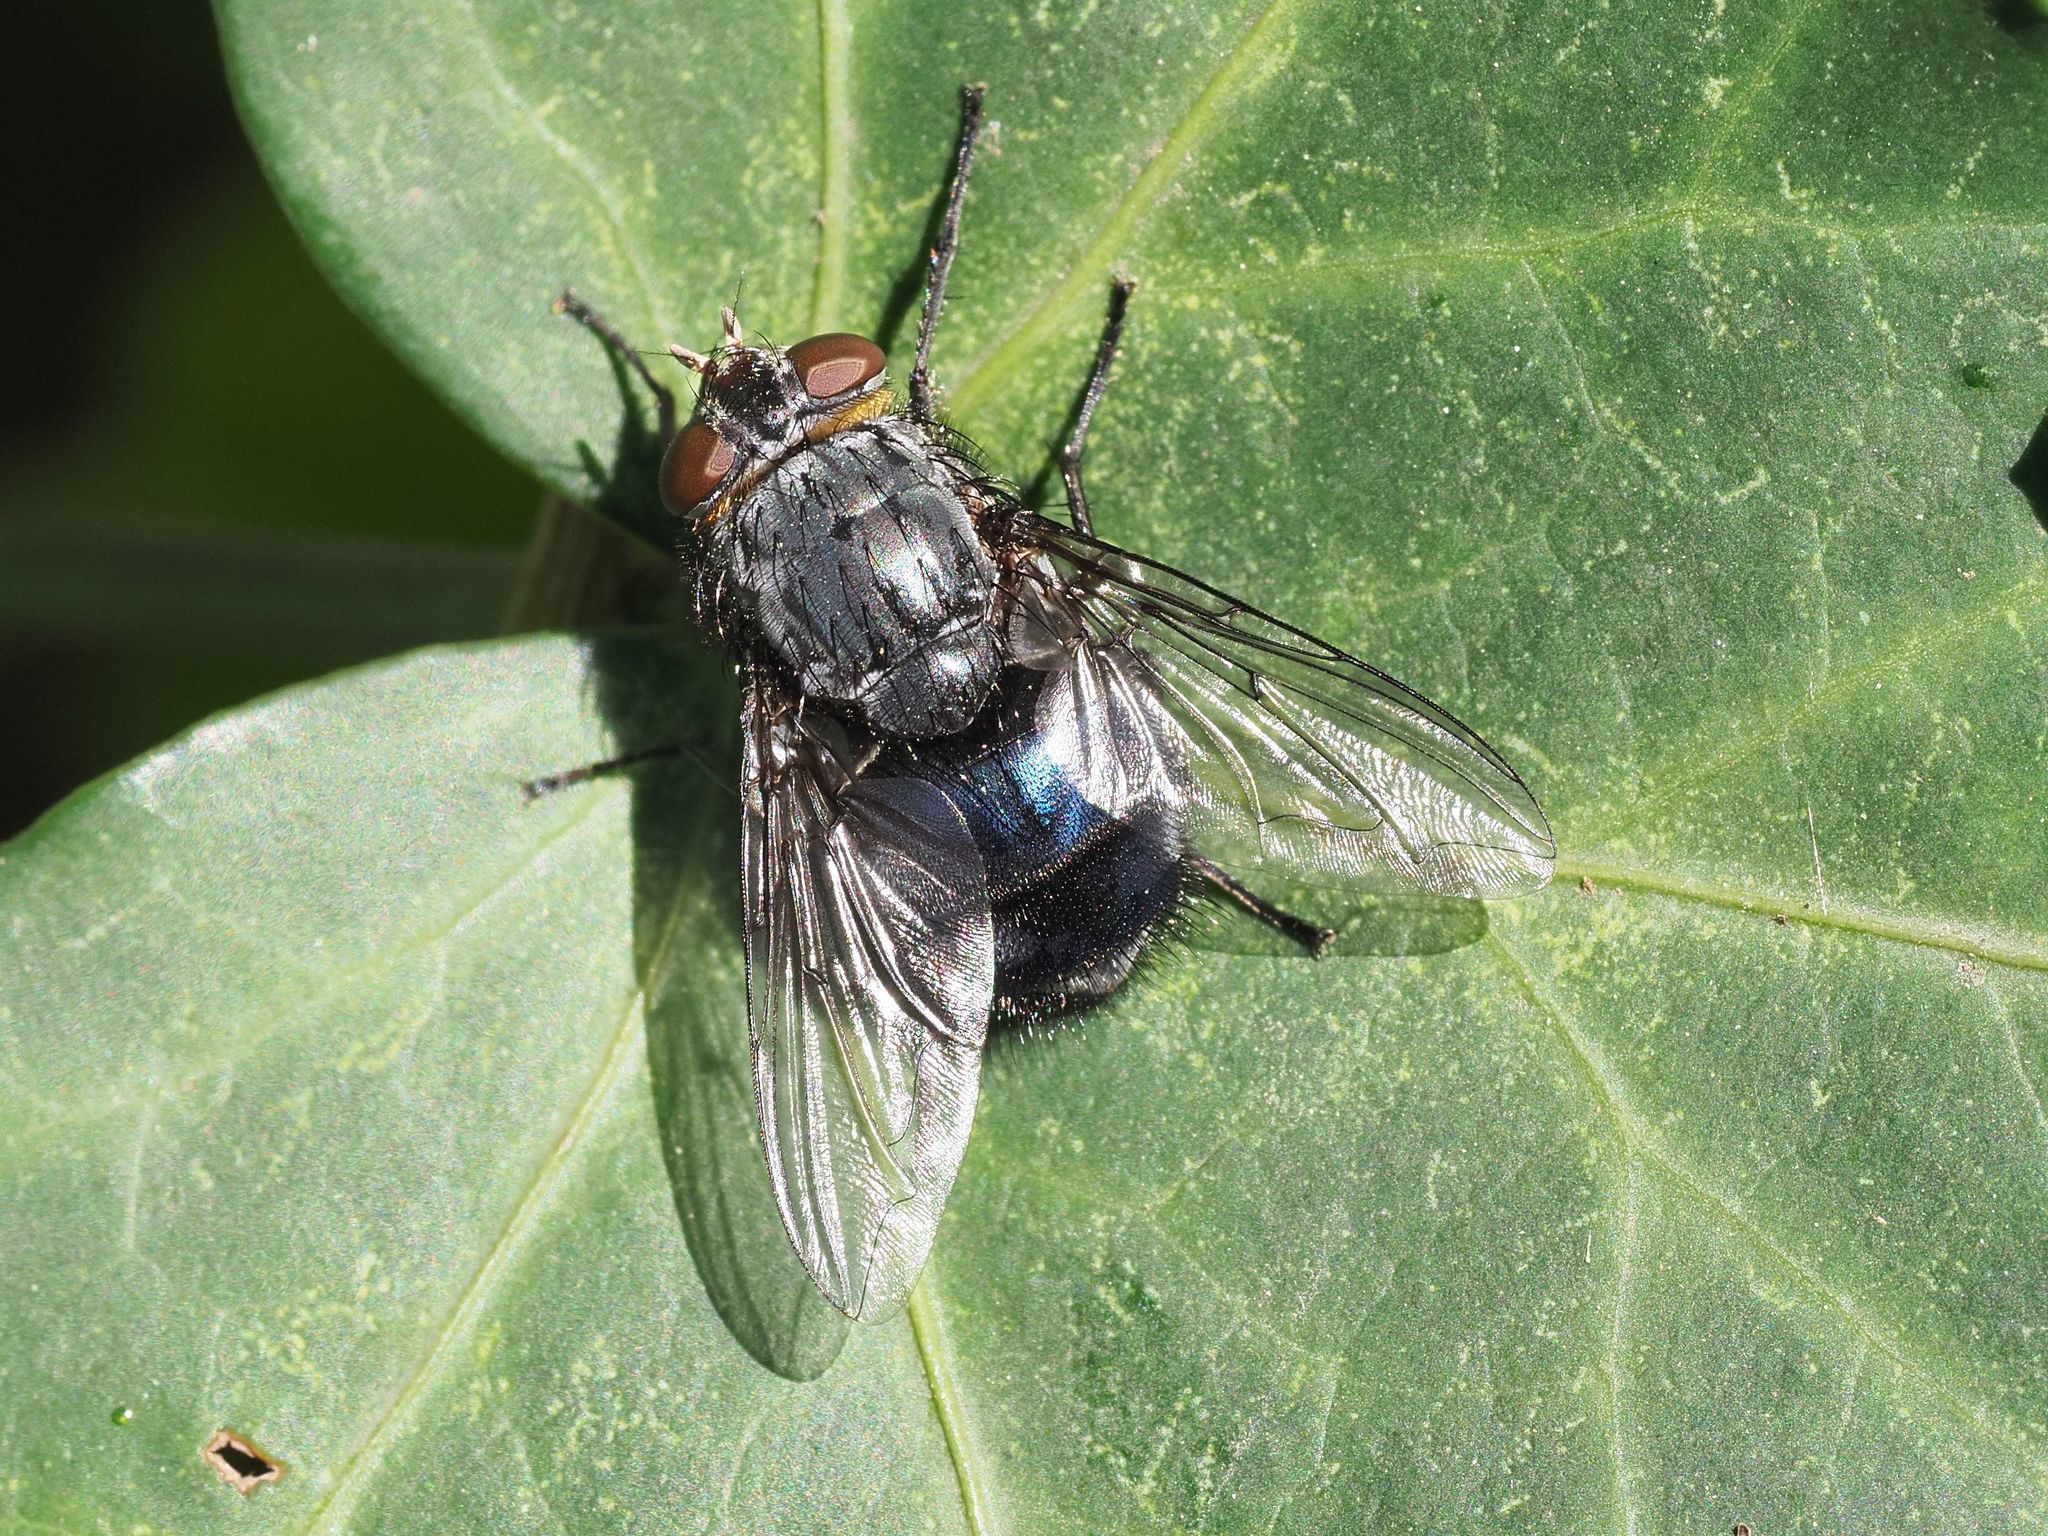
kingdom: Animalia
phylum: Arthropoda
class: Insecta
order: Diptera
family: Calliphoridae
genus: Calliphora
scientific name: Calliphora vomitoria
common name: Blue bottle fly
